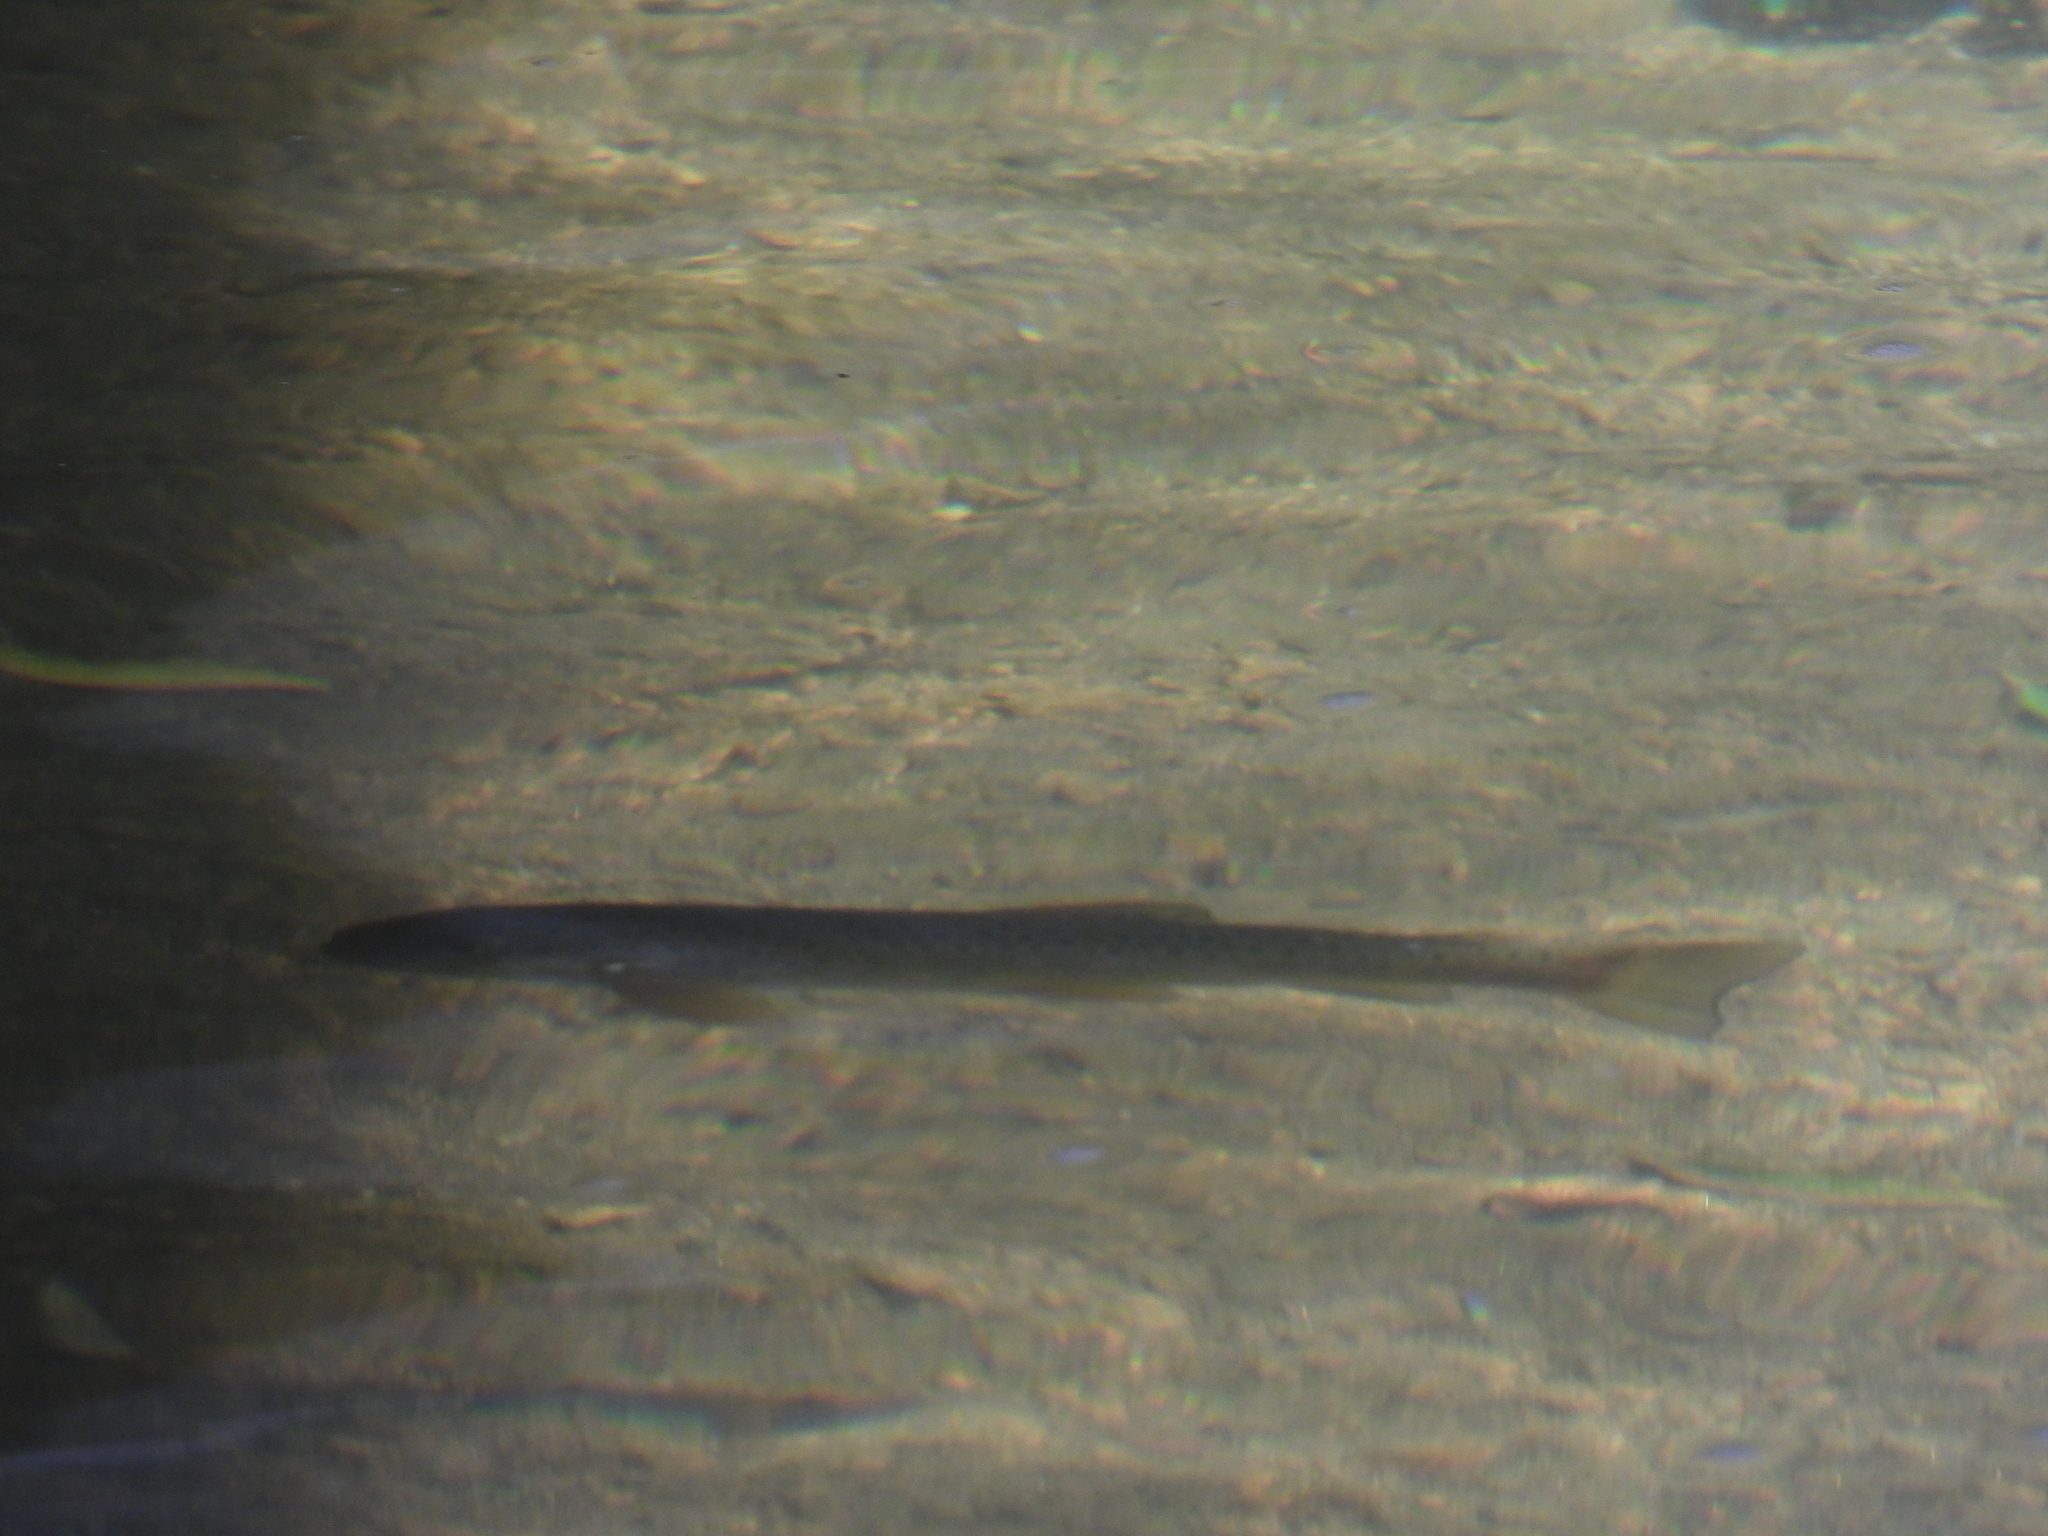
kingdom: Animalia
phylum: Chordata
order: Salmoniformes
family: Salmonidae
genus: Salmo
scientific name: Salmo trutta
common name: Brown trout
